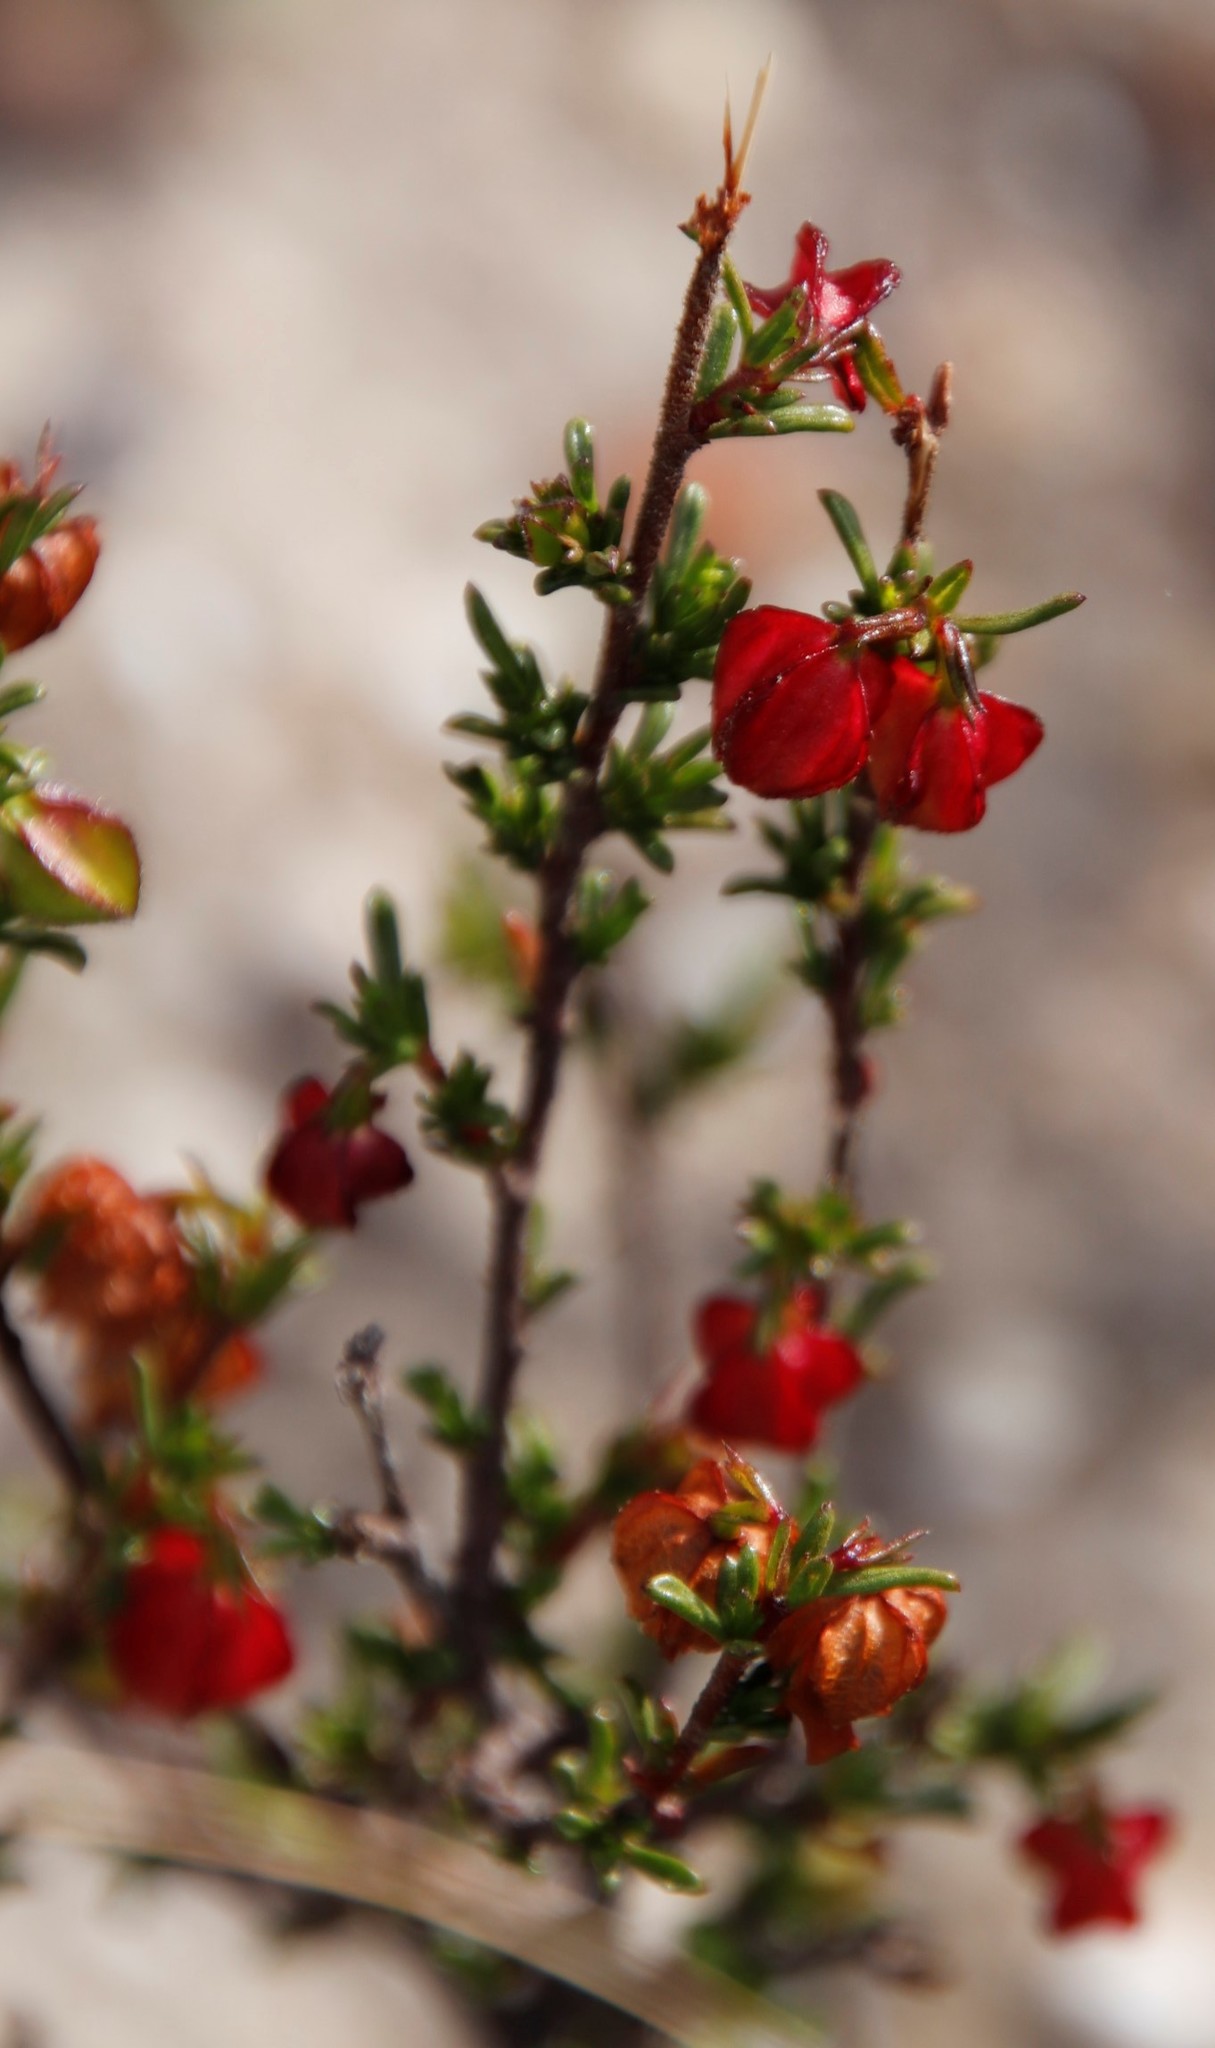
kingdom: Plantae
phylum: Tracheophyta
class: Magnoliopsida
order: Malvales
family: Malvaceae
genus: Hermannia
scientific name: Hermannia angularis
